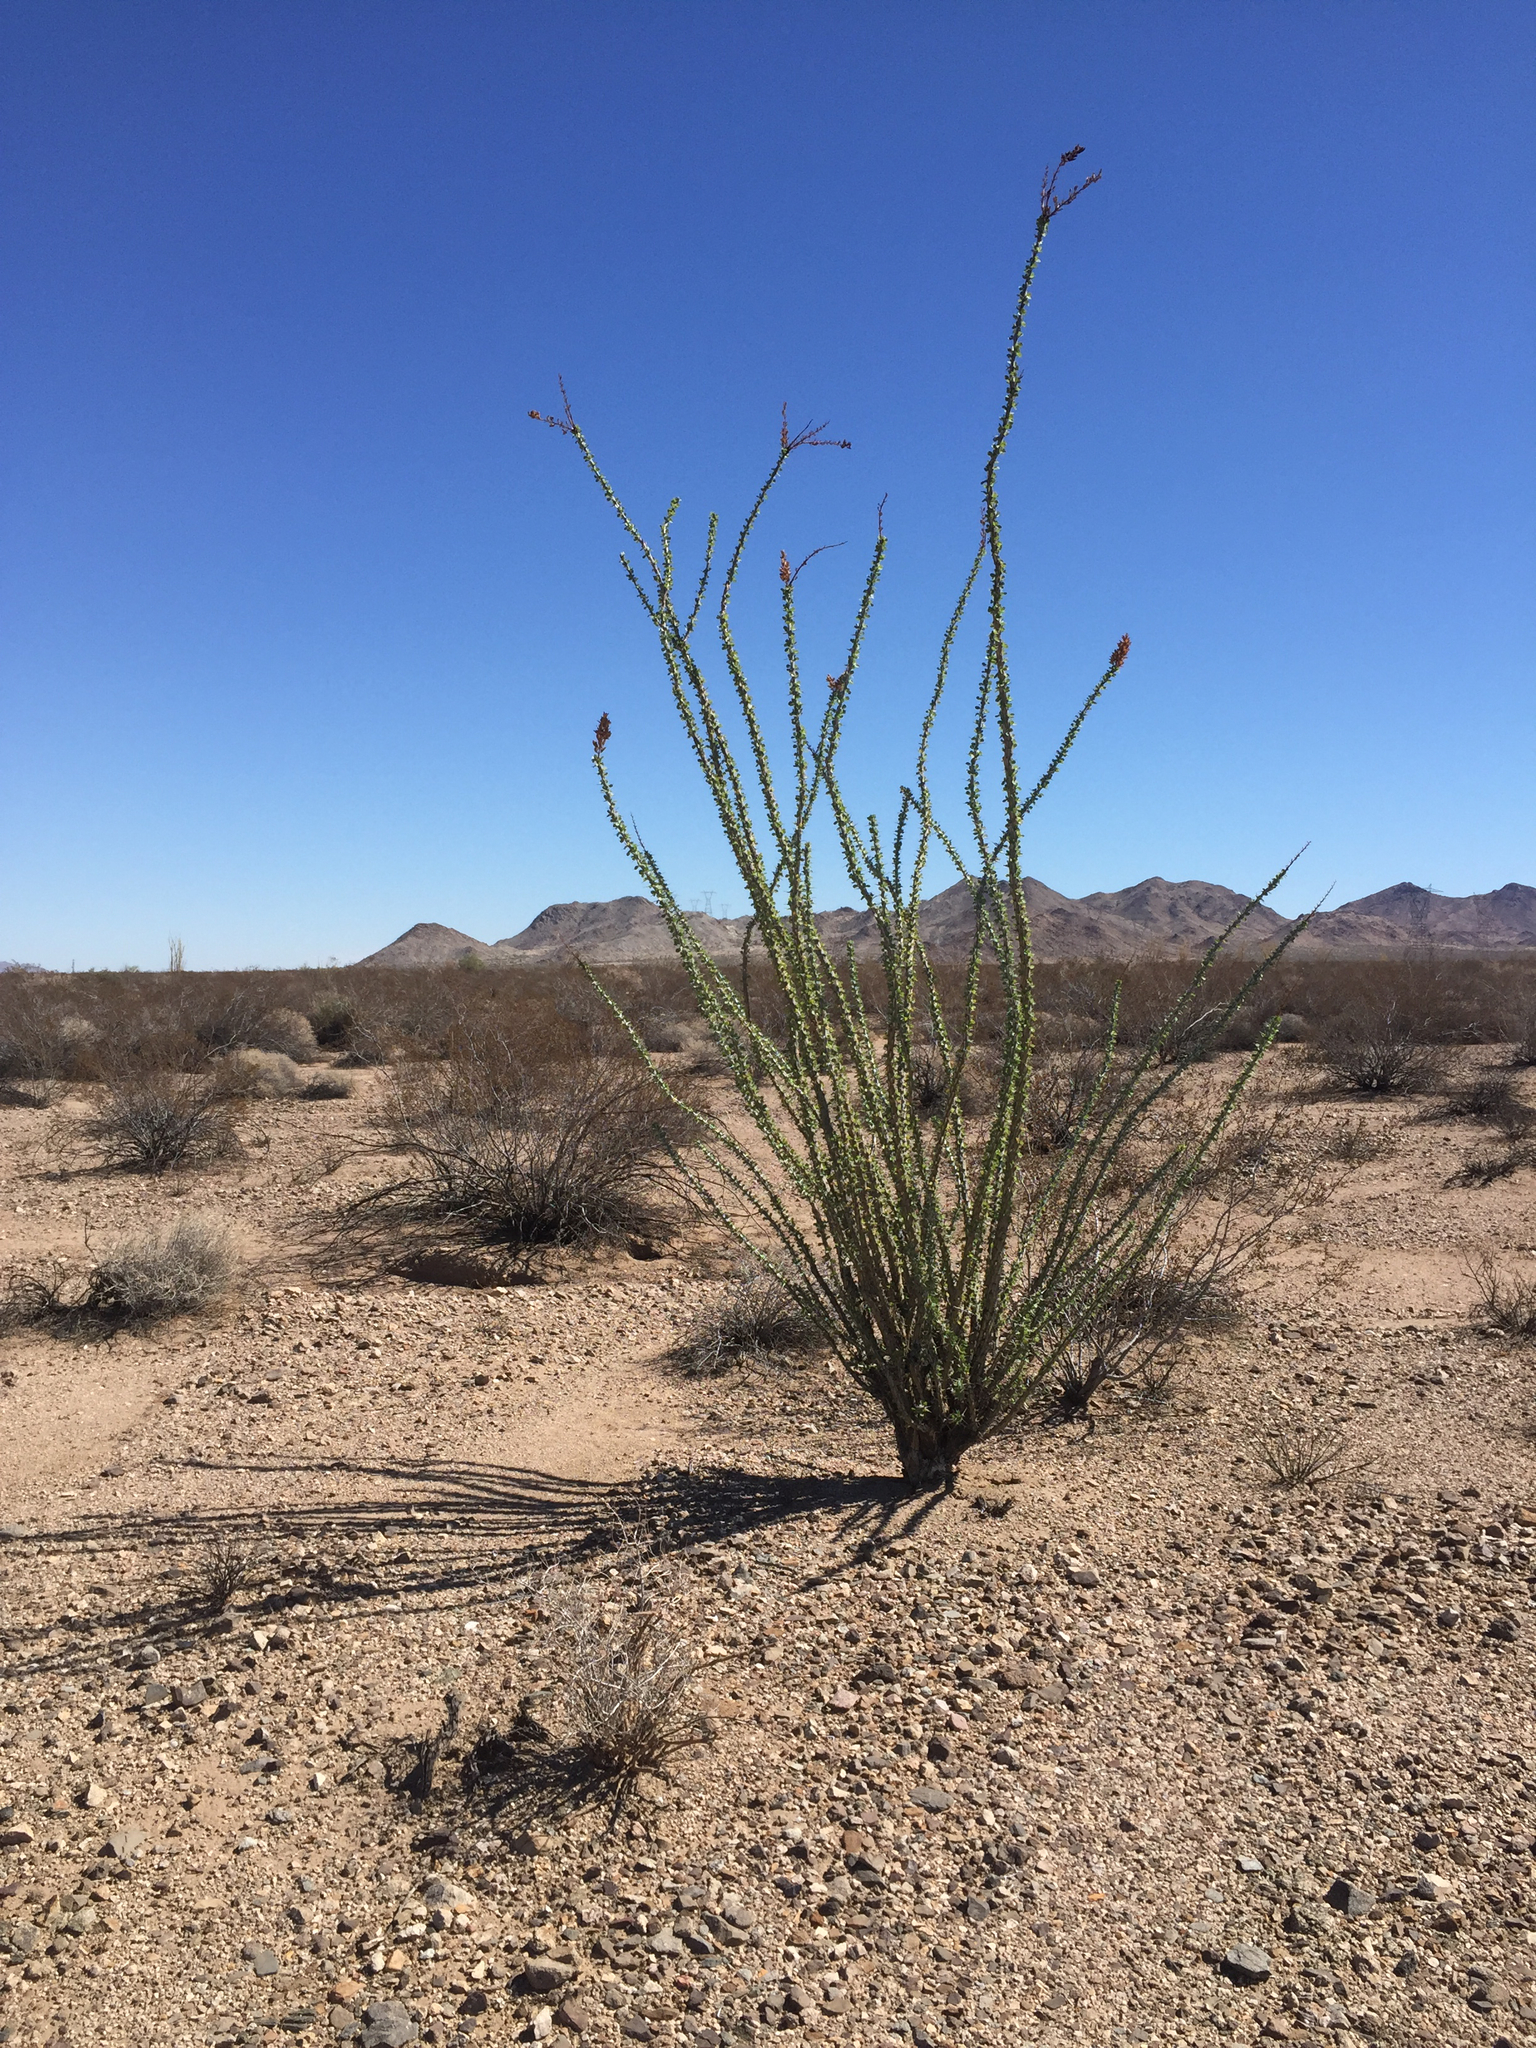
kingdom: Plantae
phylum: Tracheophyta
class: Magnoliopsida
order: Ericales
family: Fouquieriaceae
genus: Fouquieria
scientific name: Fouquieria splendens
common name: Vine-cactus
